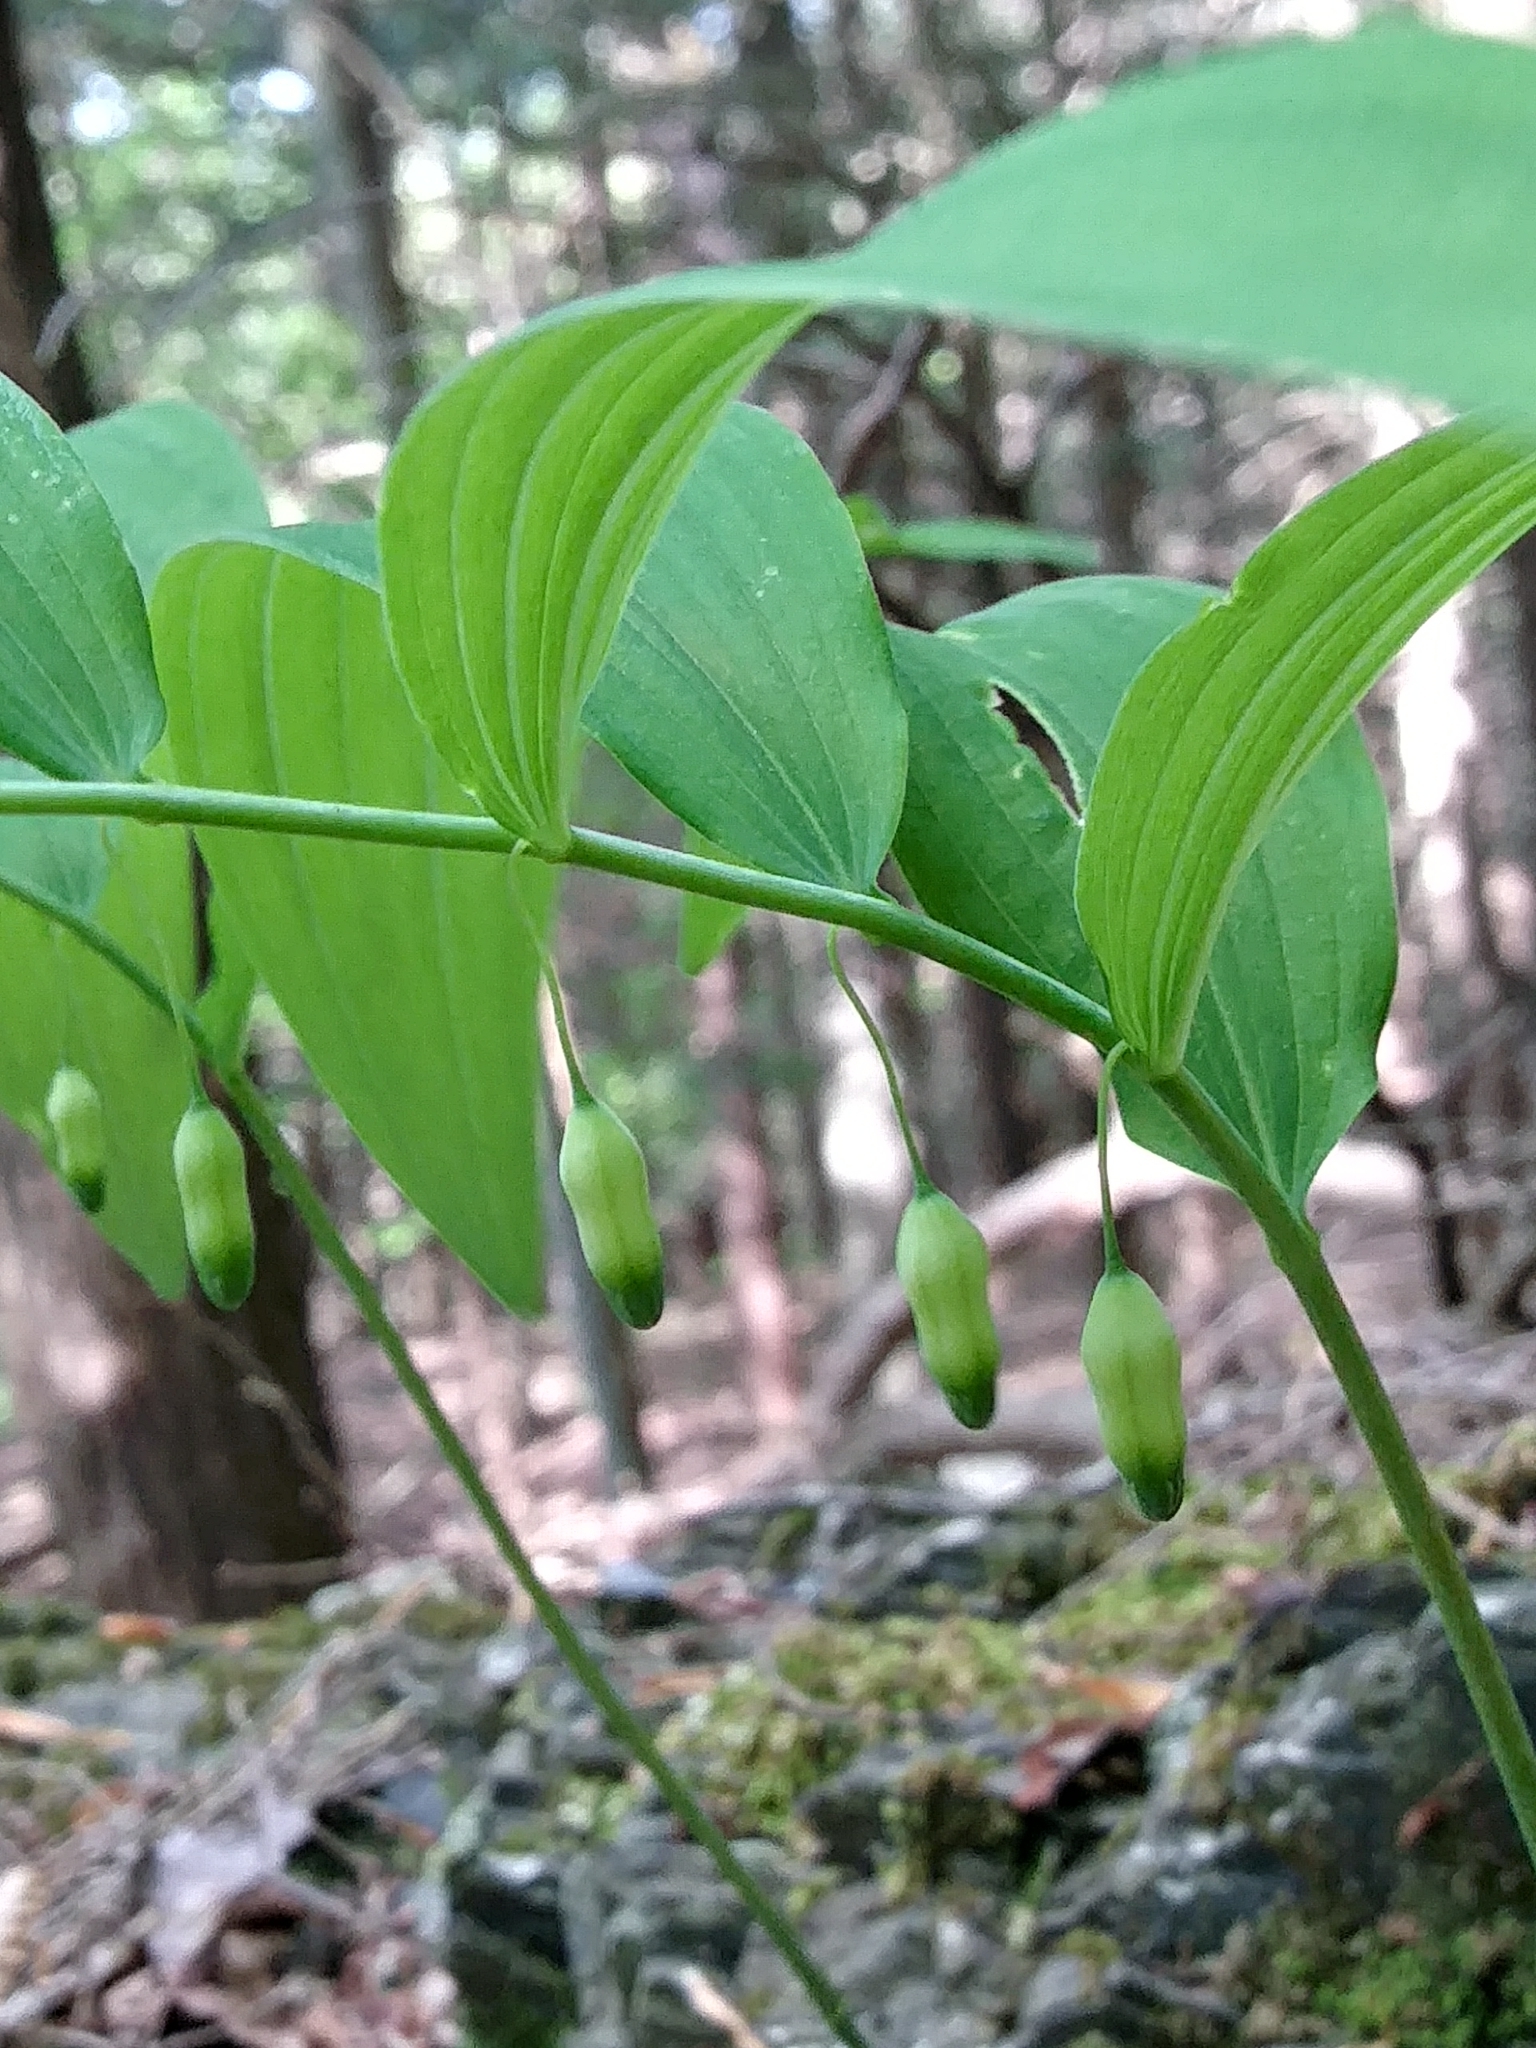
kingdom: Plantae
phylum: Tracheophyta
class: Liliopsida
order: Asparagales
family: Asparagaceae
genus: Polygonatum
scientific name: Polygonatum pubescens
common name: Downy solomon's seal
